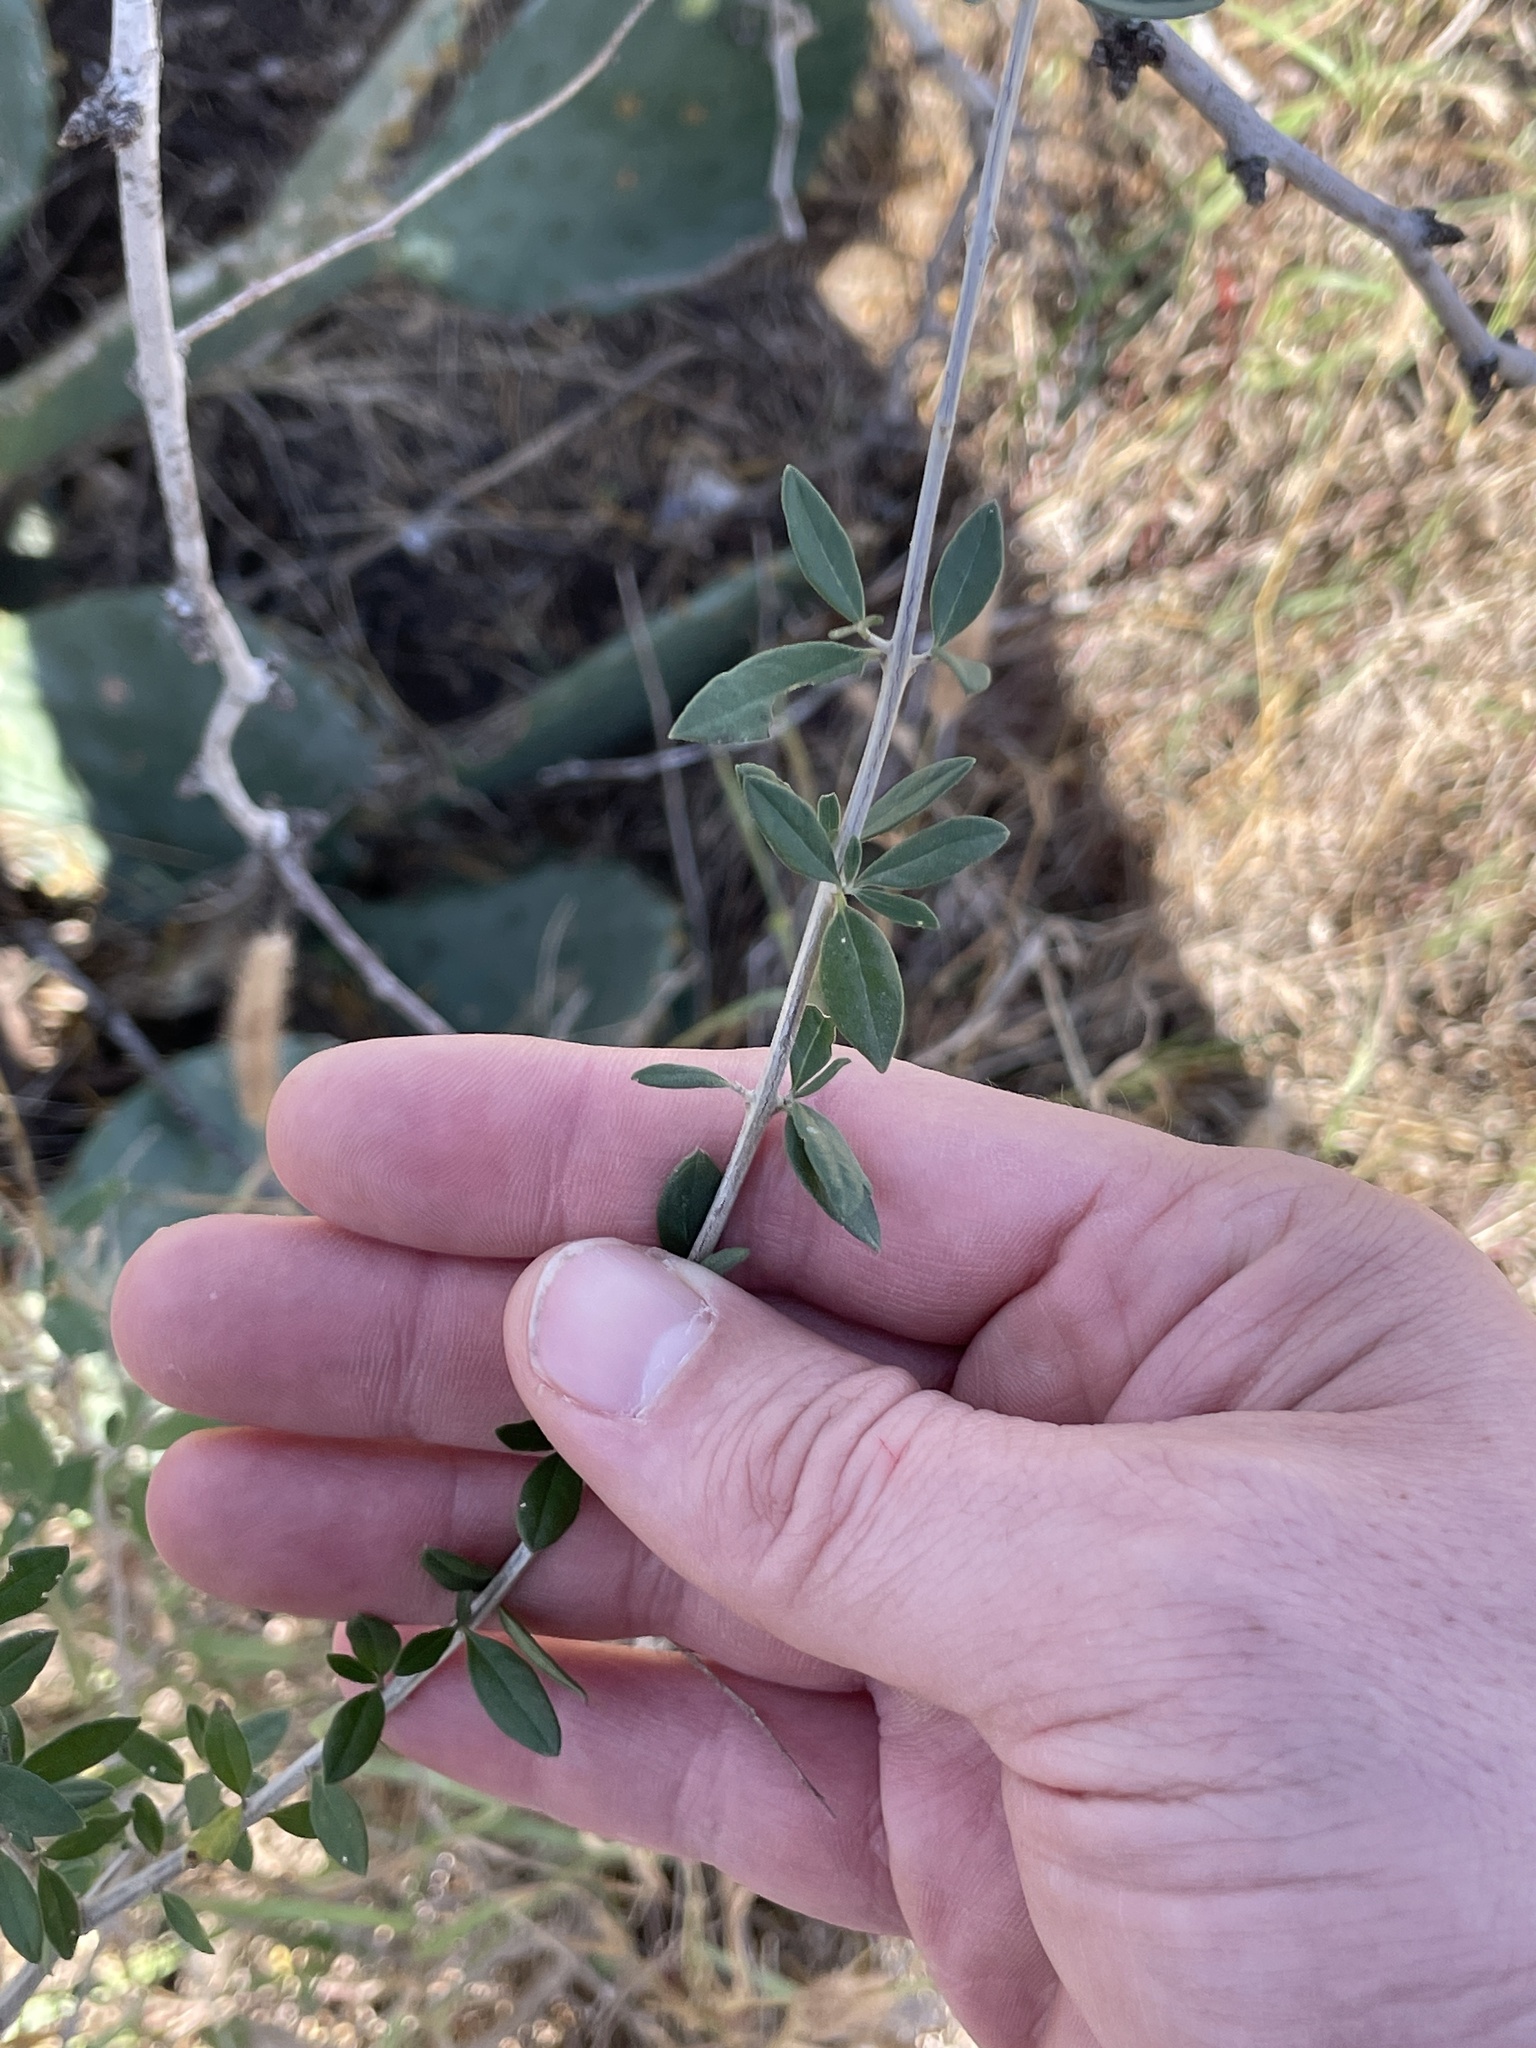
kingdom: Plantae
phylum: Tracheophyta
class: Magnoliopsida
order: Lamiales
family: Verbenaceae
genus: Aloysia
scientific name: Aloysia gratissima
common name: Common bee-brush
